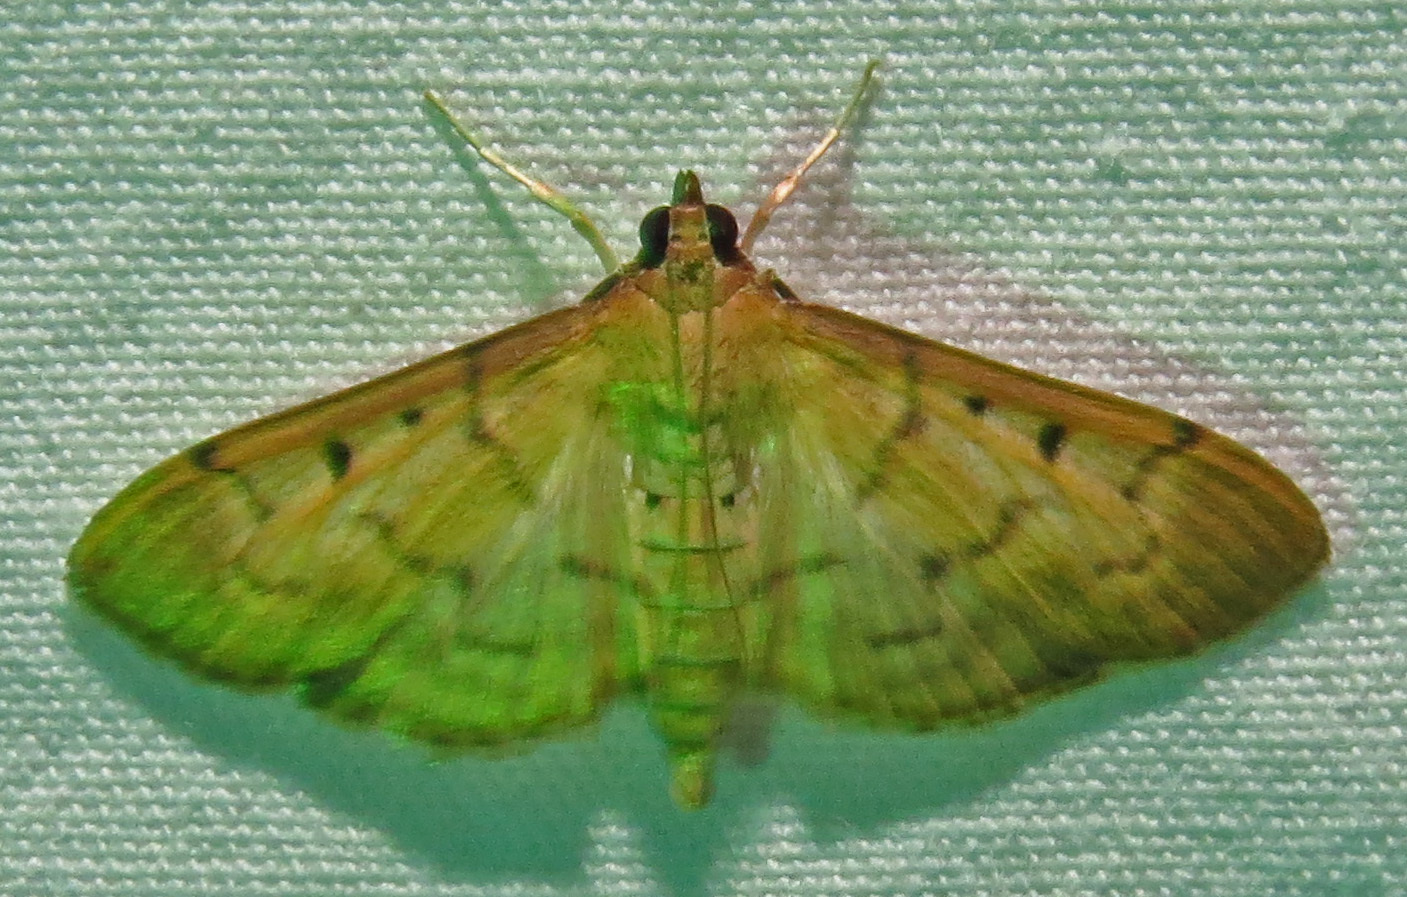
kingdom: Animalia
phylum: Arthropoda
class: Insecta
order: Lepidoptera
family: Crambidae
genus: Herpetogramma
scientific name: Herpetogramma bipunctalis
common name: Southern beet webworm
